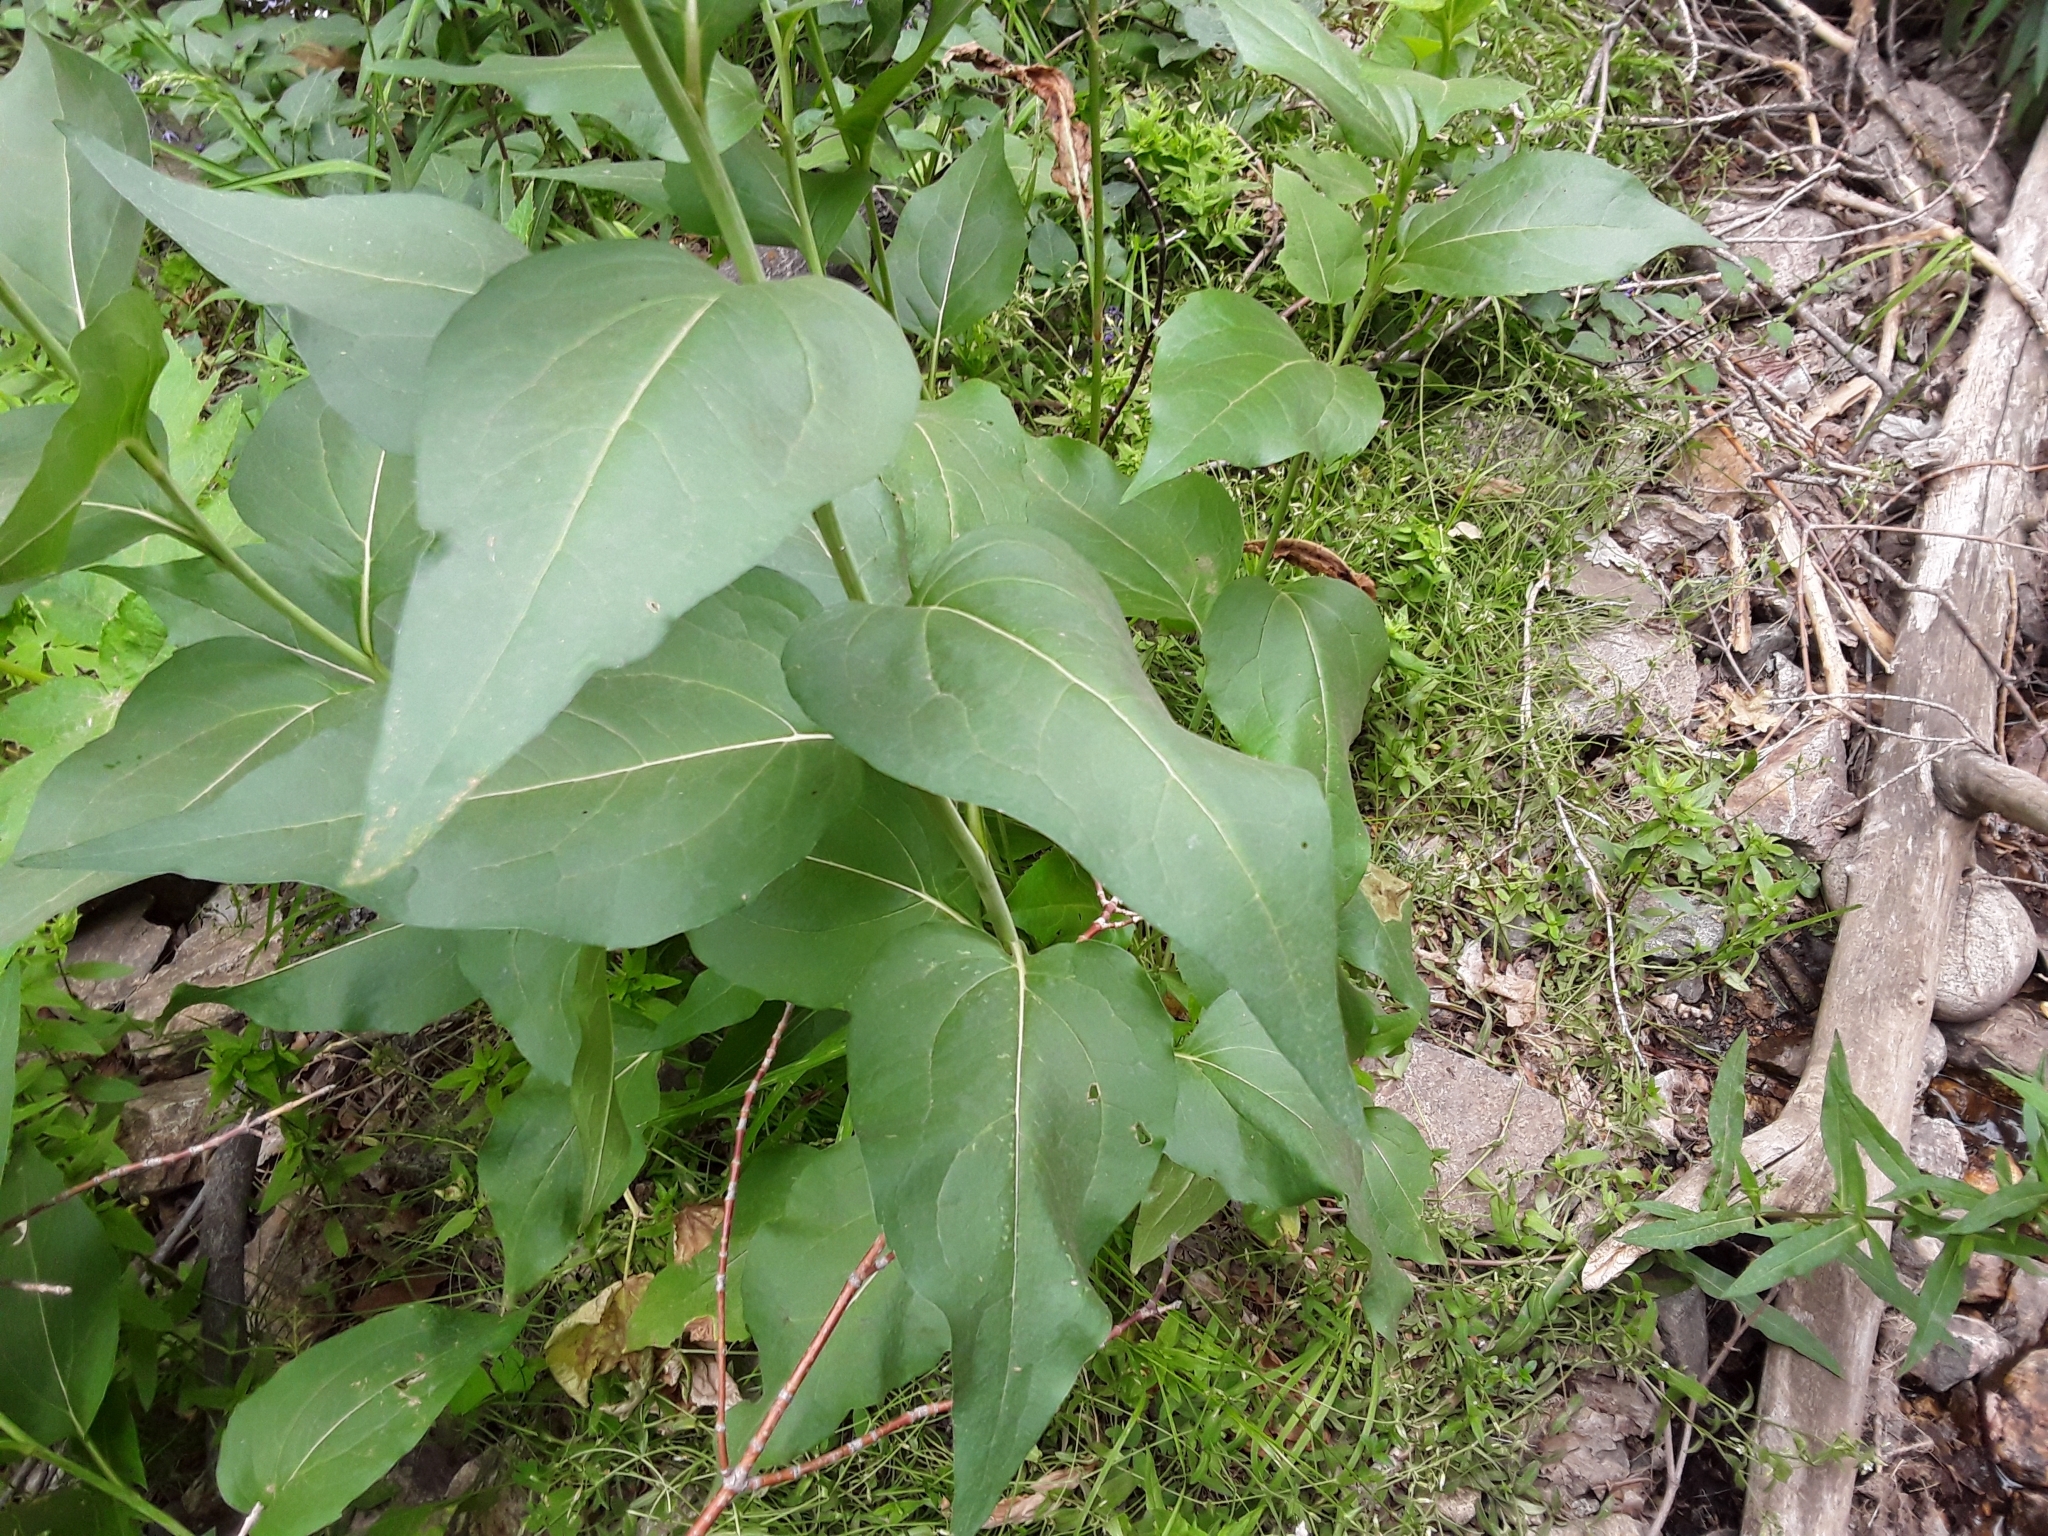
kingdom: Plantae
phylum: Tracheophyta
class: Magnoliopsida
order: Asterales
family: Asteraceae
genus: Rudbeckia
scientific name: Rudbeckia occidentalis
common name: Western coneflower
